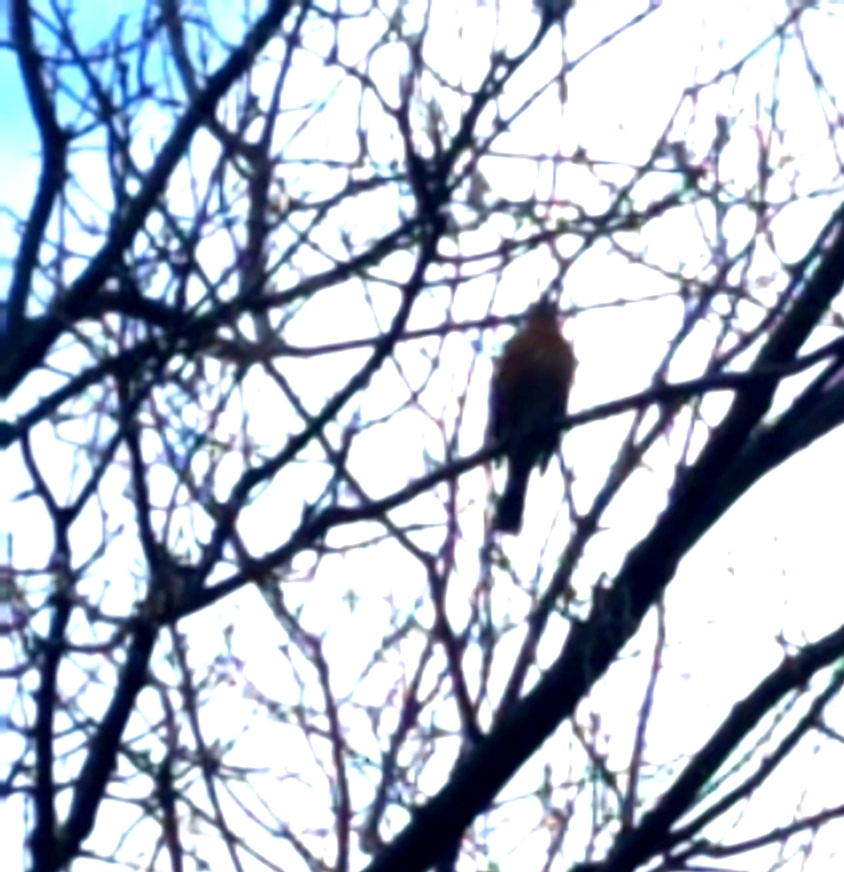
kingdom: Animalia
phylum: Chordata
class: Aves
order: Passeriformes
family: Turdidae
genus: Turdus
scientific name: Turdus migratorius
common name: American robin
